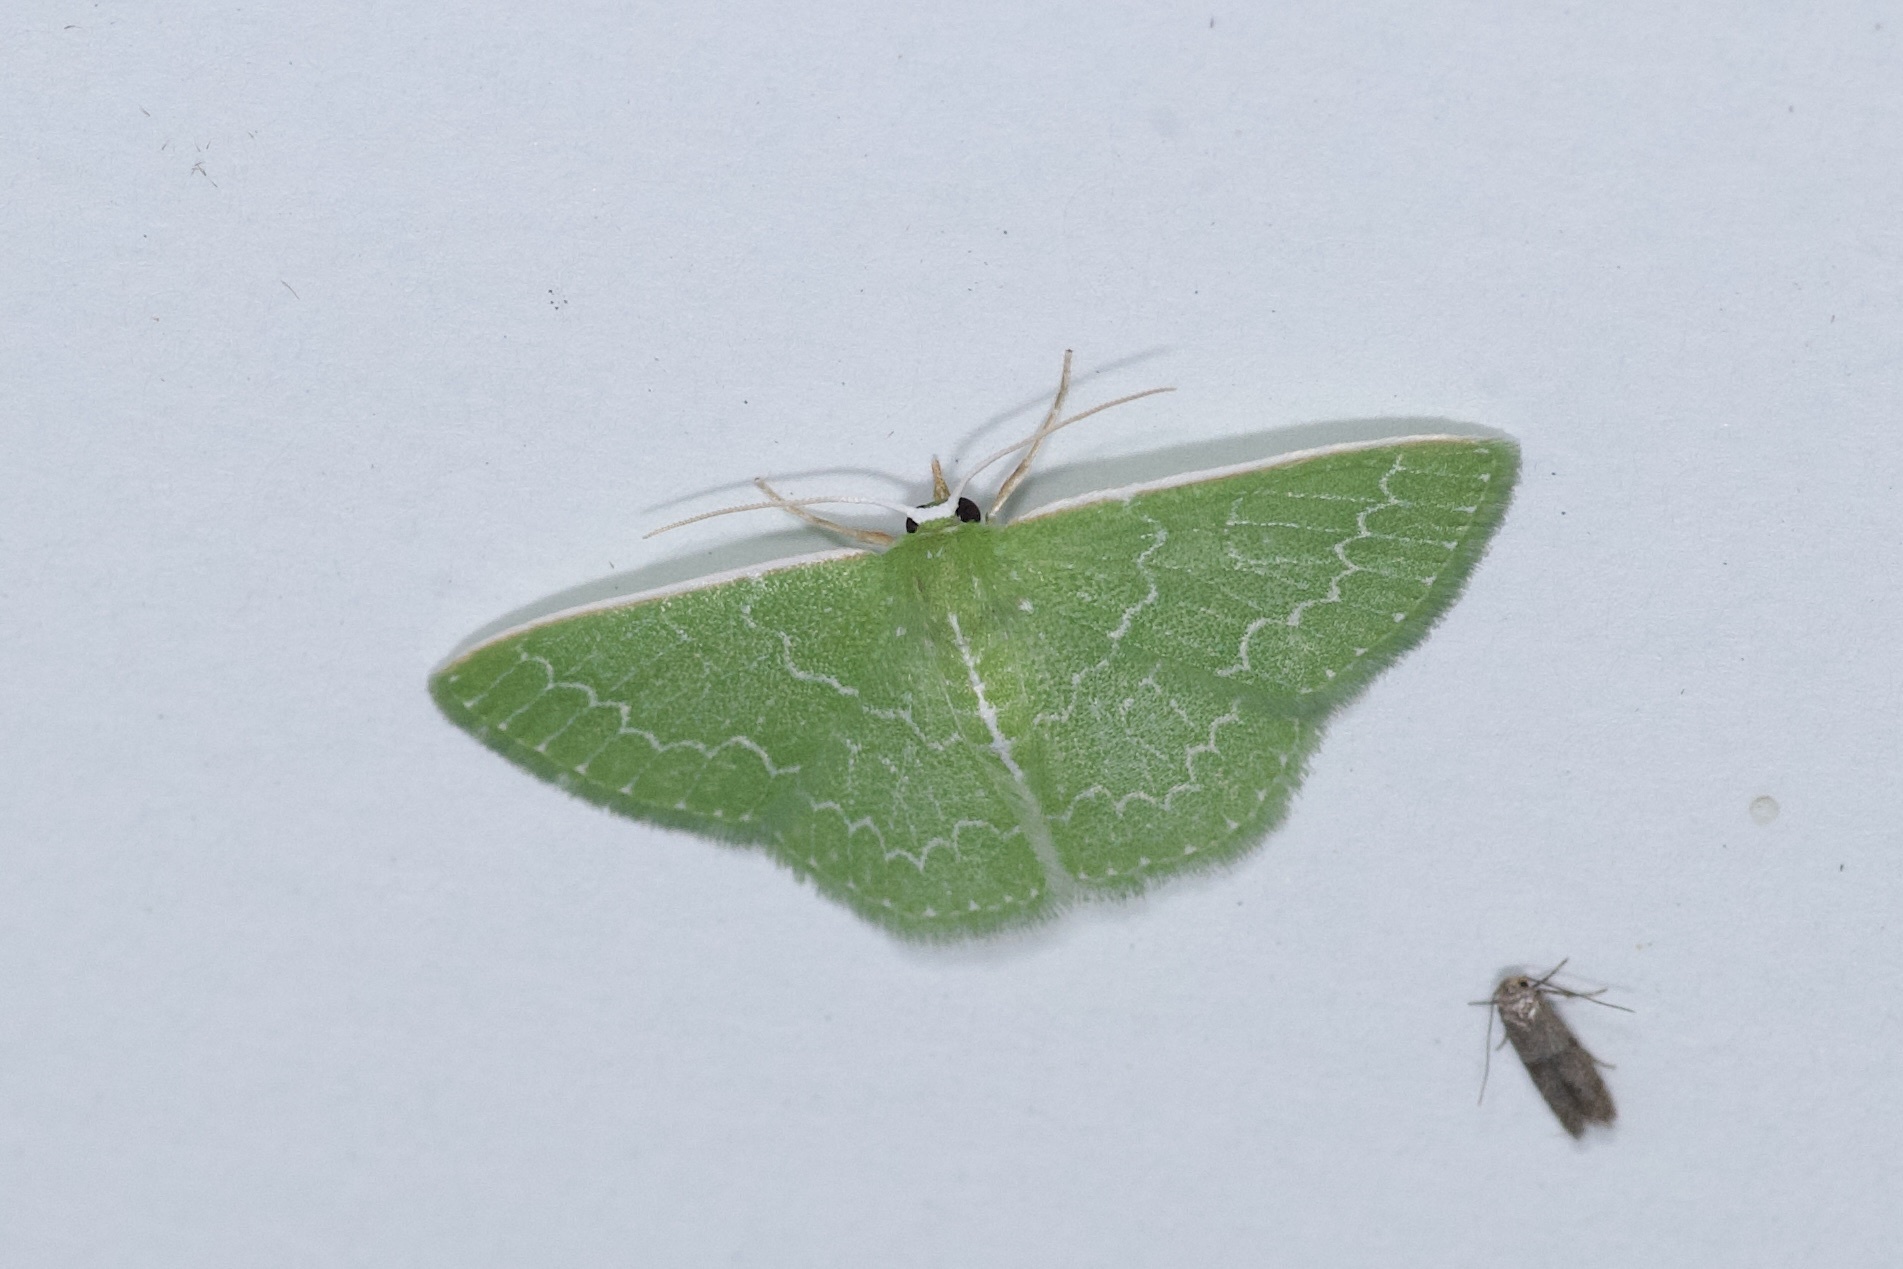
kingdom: Animalia
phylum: Arthropoda
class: Insecta
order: Lepidoptera
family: Geometridae
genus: Synchlora
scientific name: Synchlora frondaria
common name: Southern emerald
